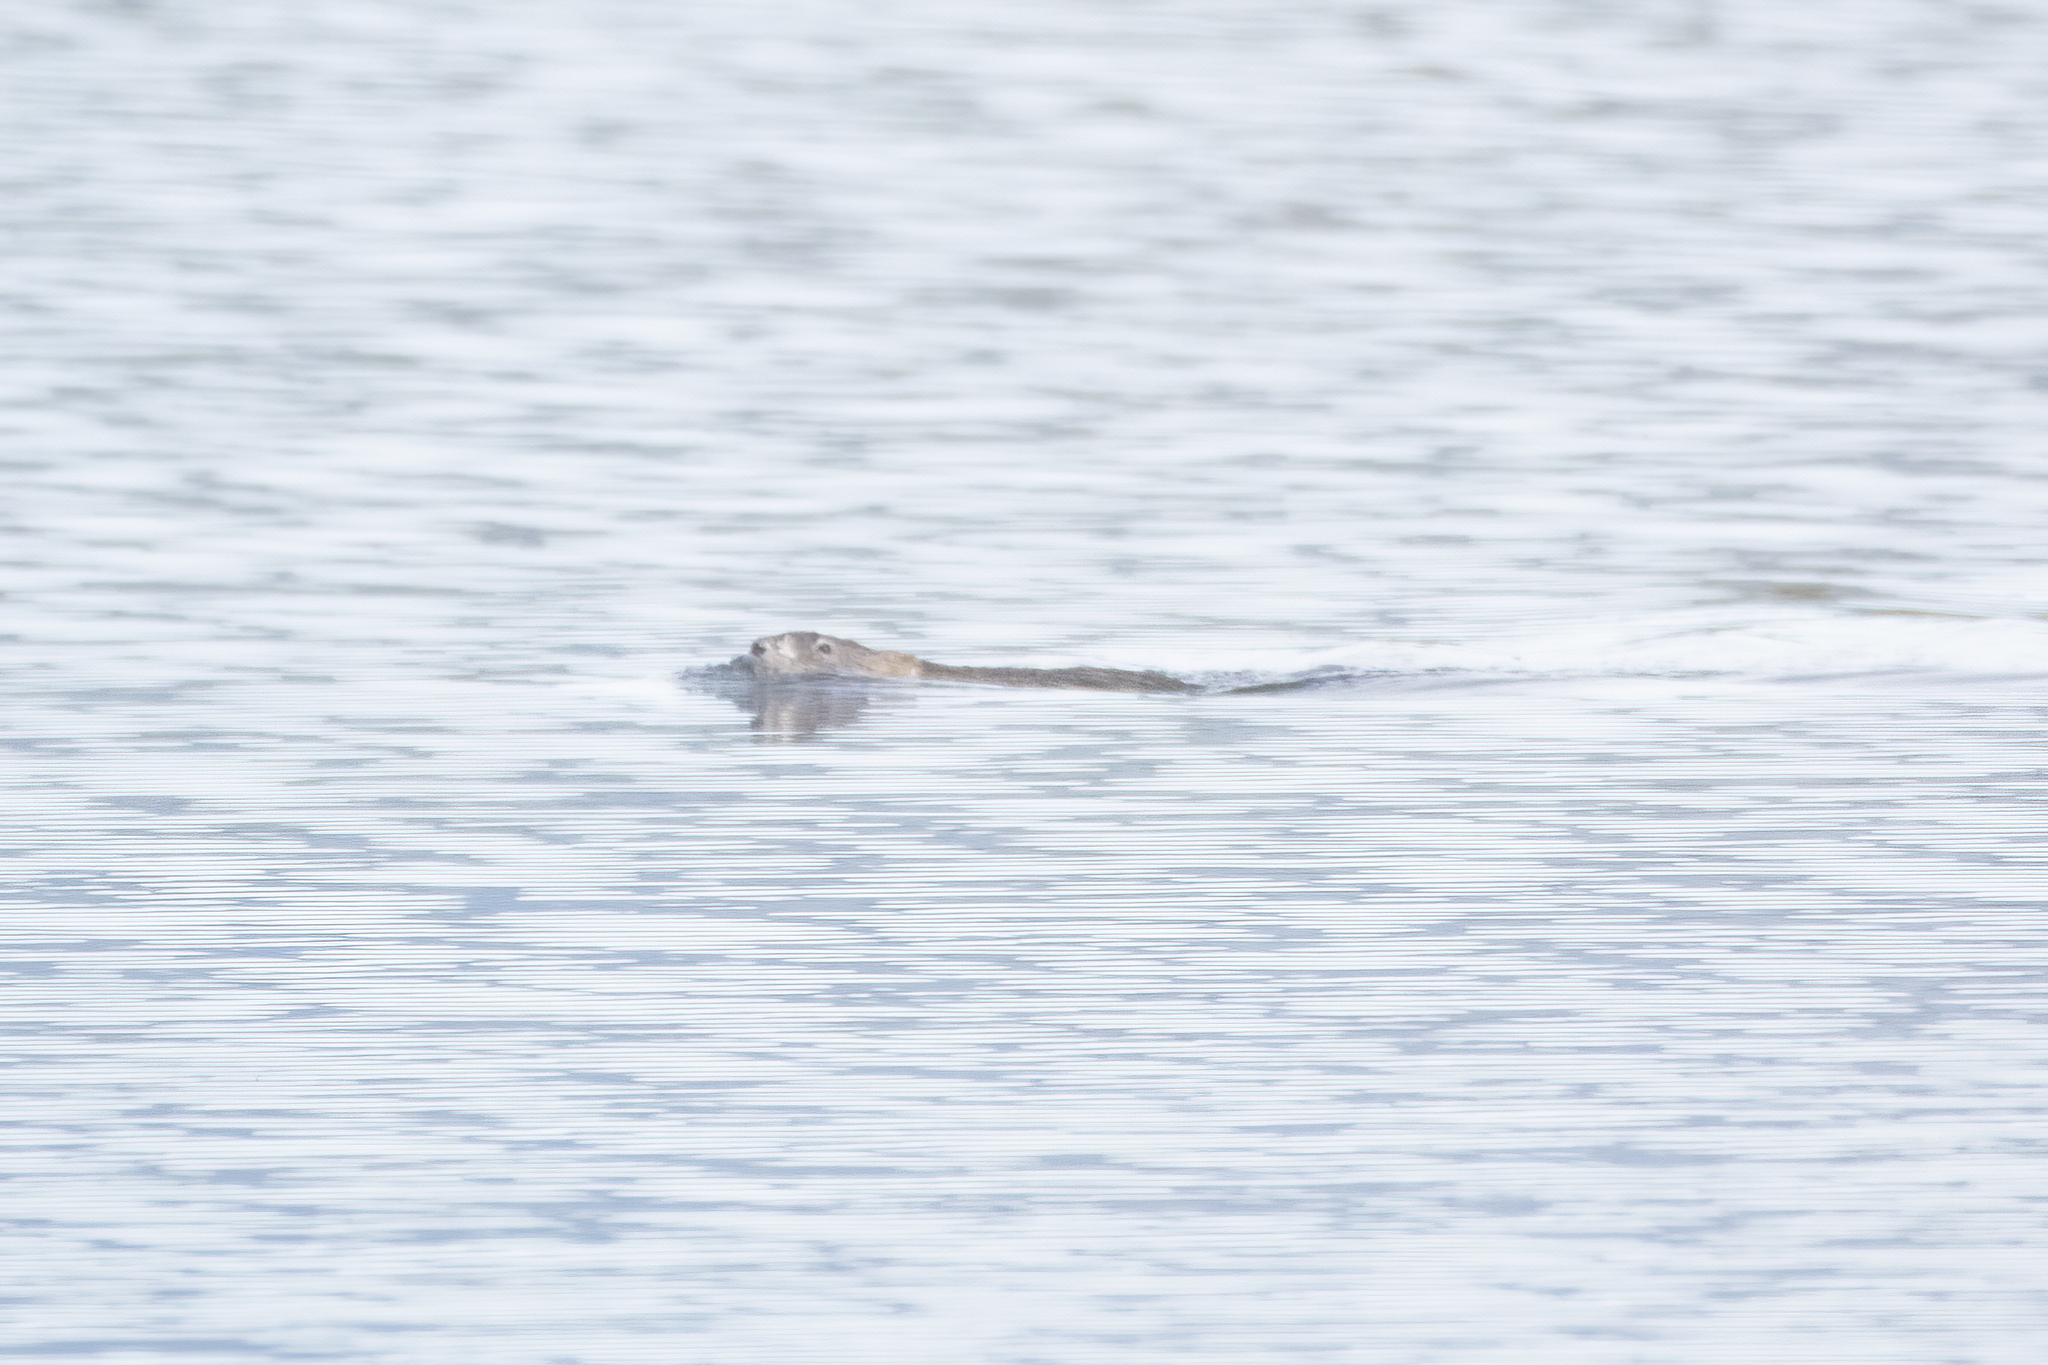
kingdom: Animalia
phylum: Chordata
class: Mammalia
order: Rodentia
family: Cricetidae
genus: Ondatra
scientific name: Ondatra zibethicus
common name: Muskrat
